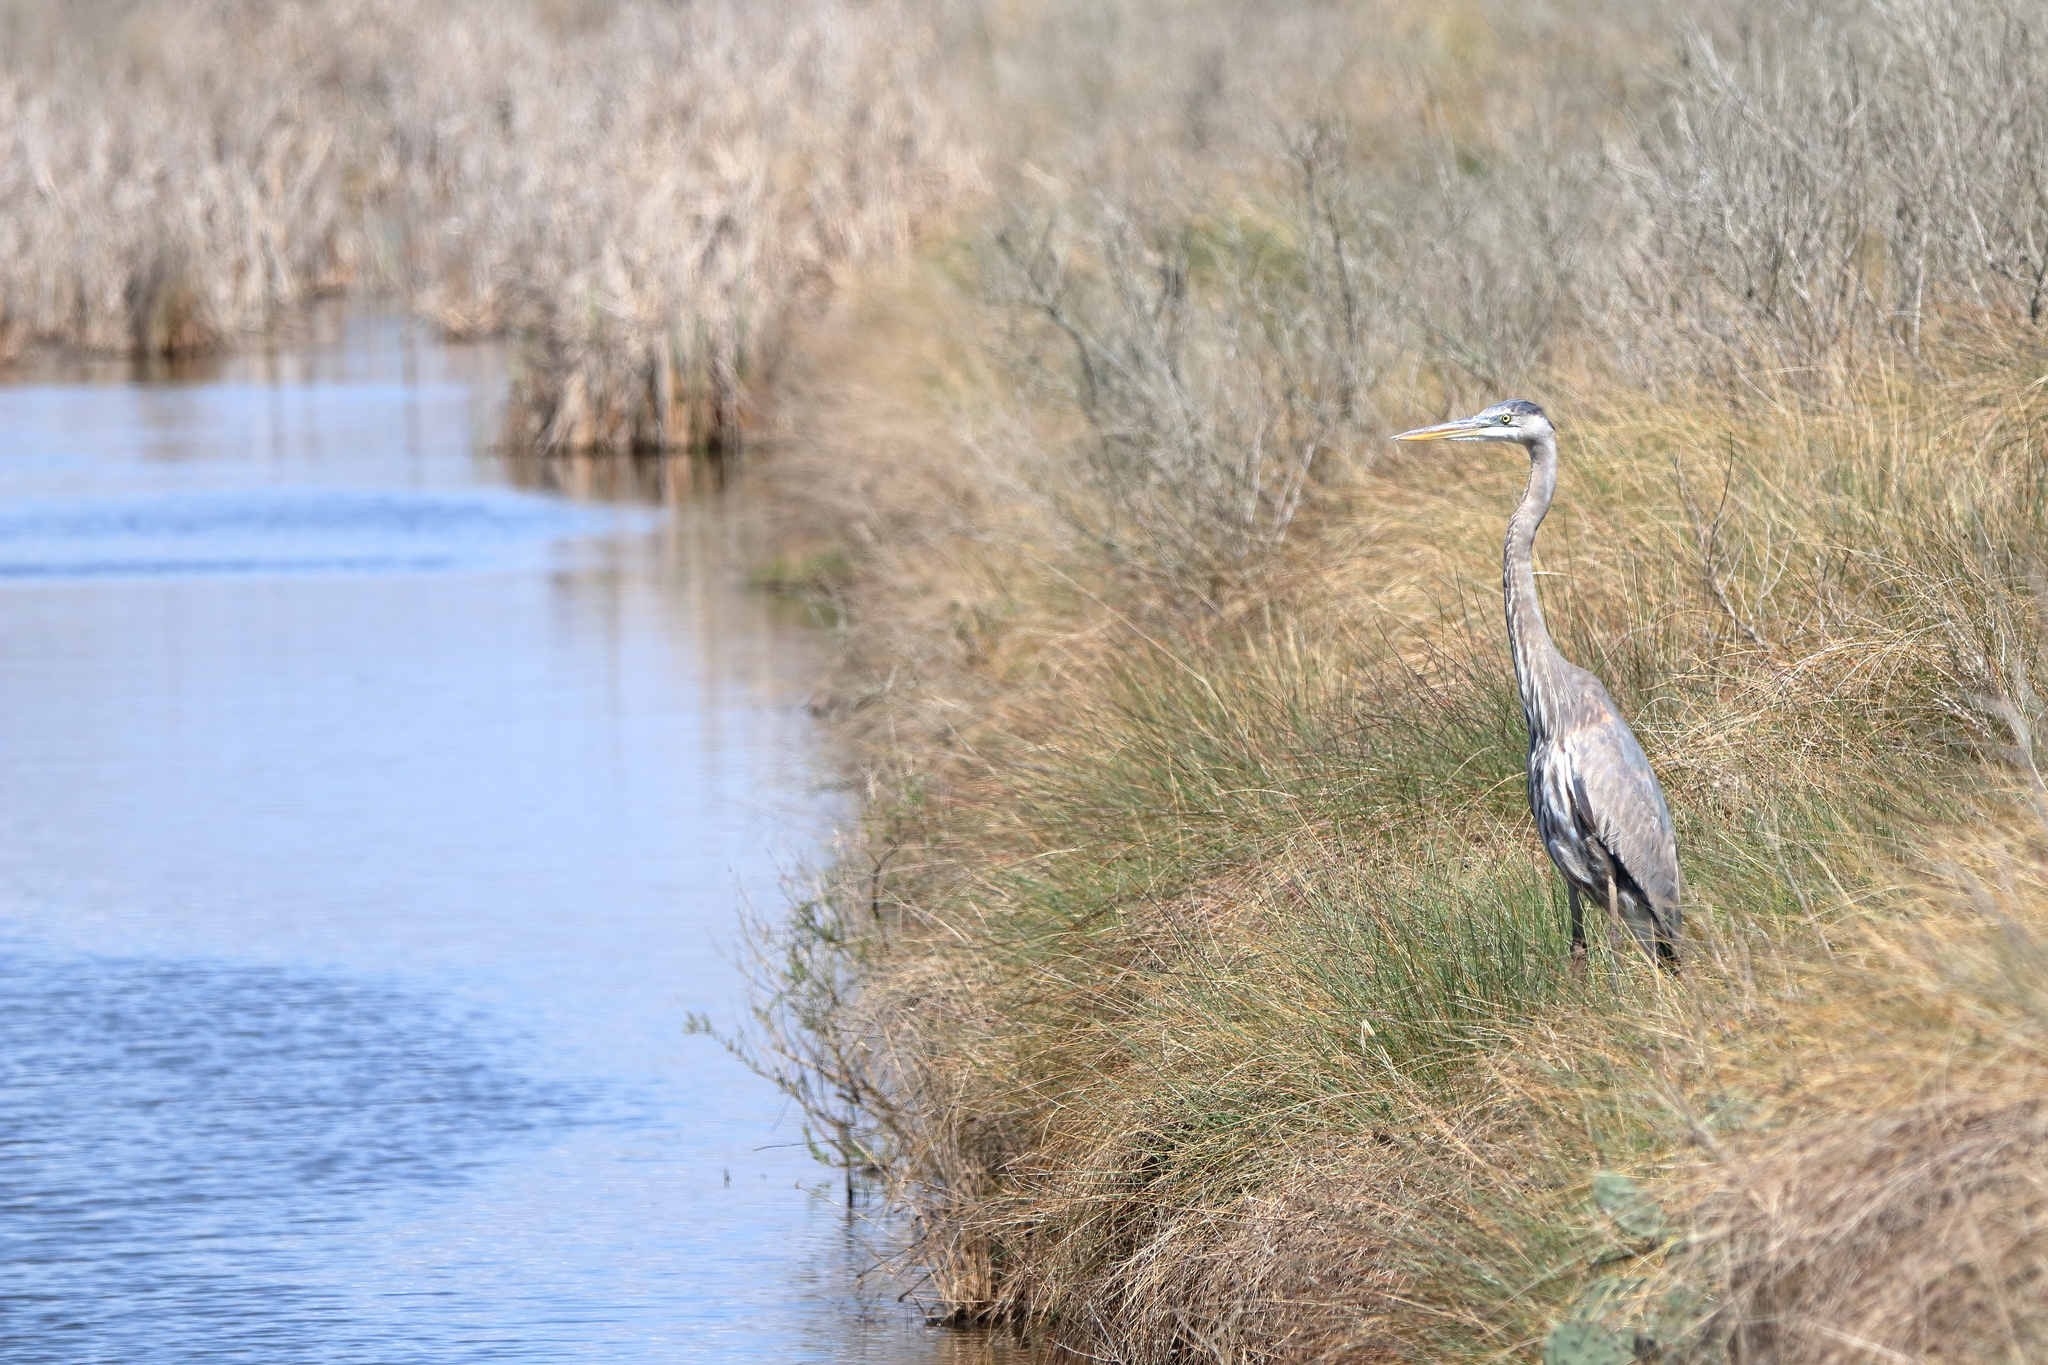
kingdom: Animalia
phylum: Chordata
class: Aves
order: Pelecaniformes
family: Ardeidae
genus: Ardea
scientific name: Ardea herodias
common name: Great blue heron
